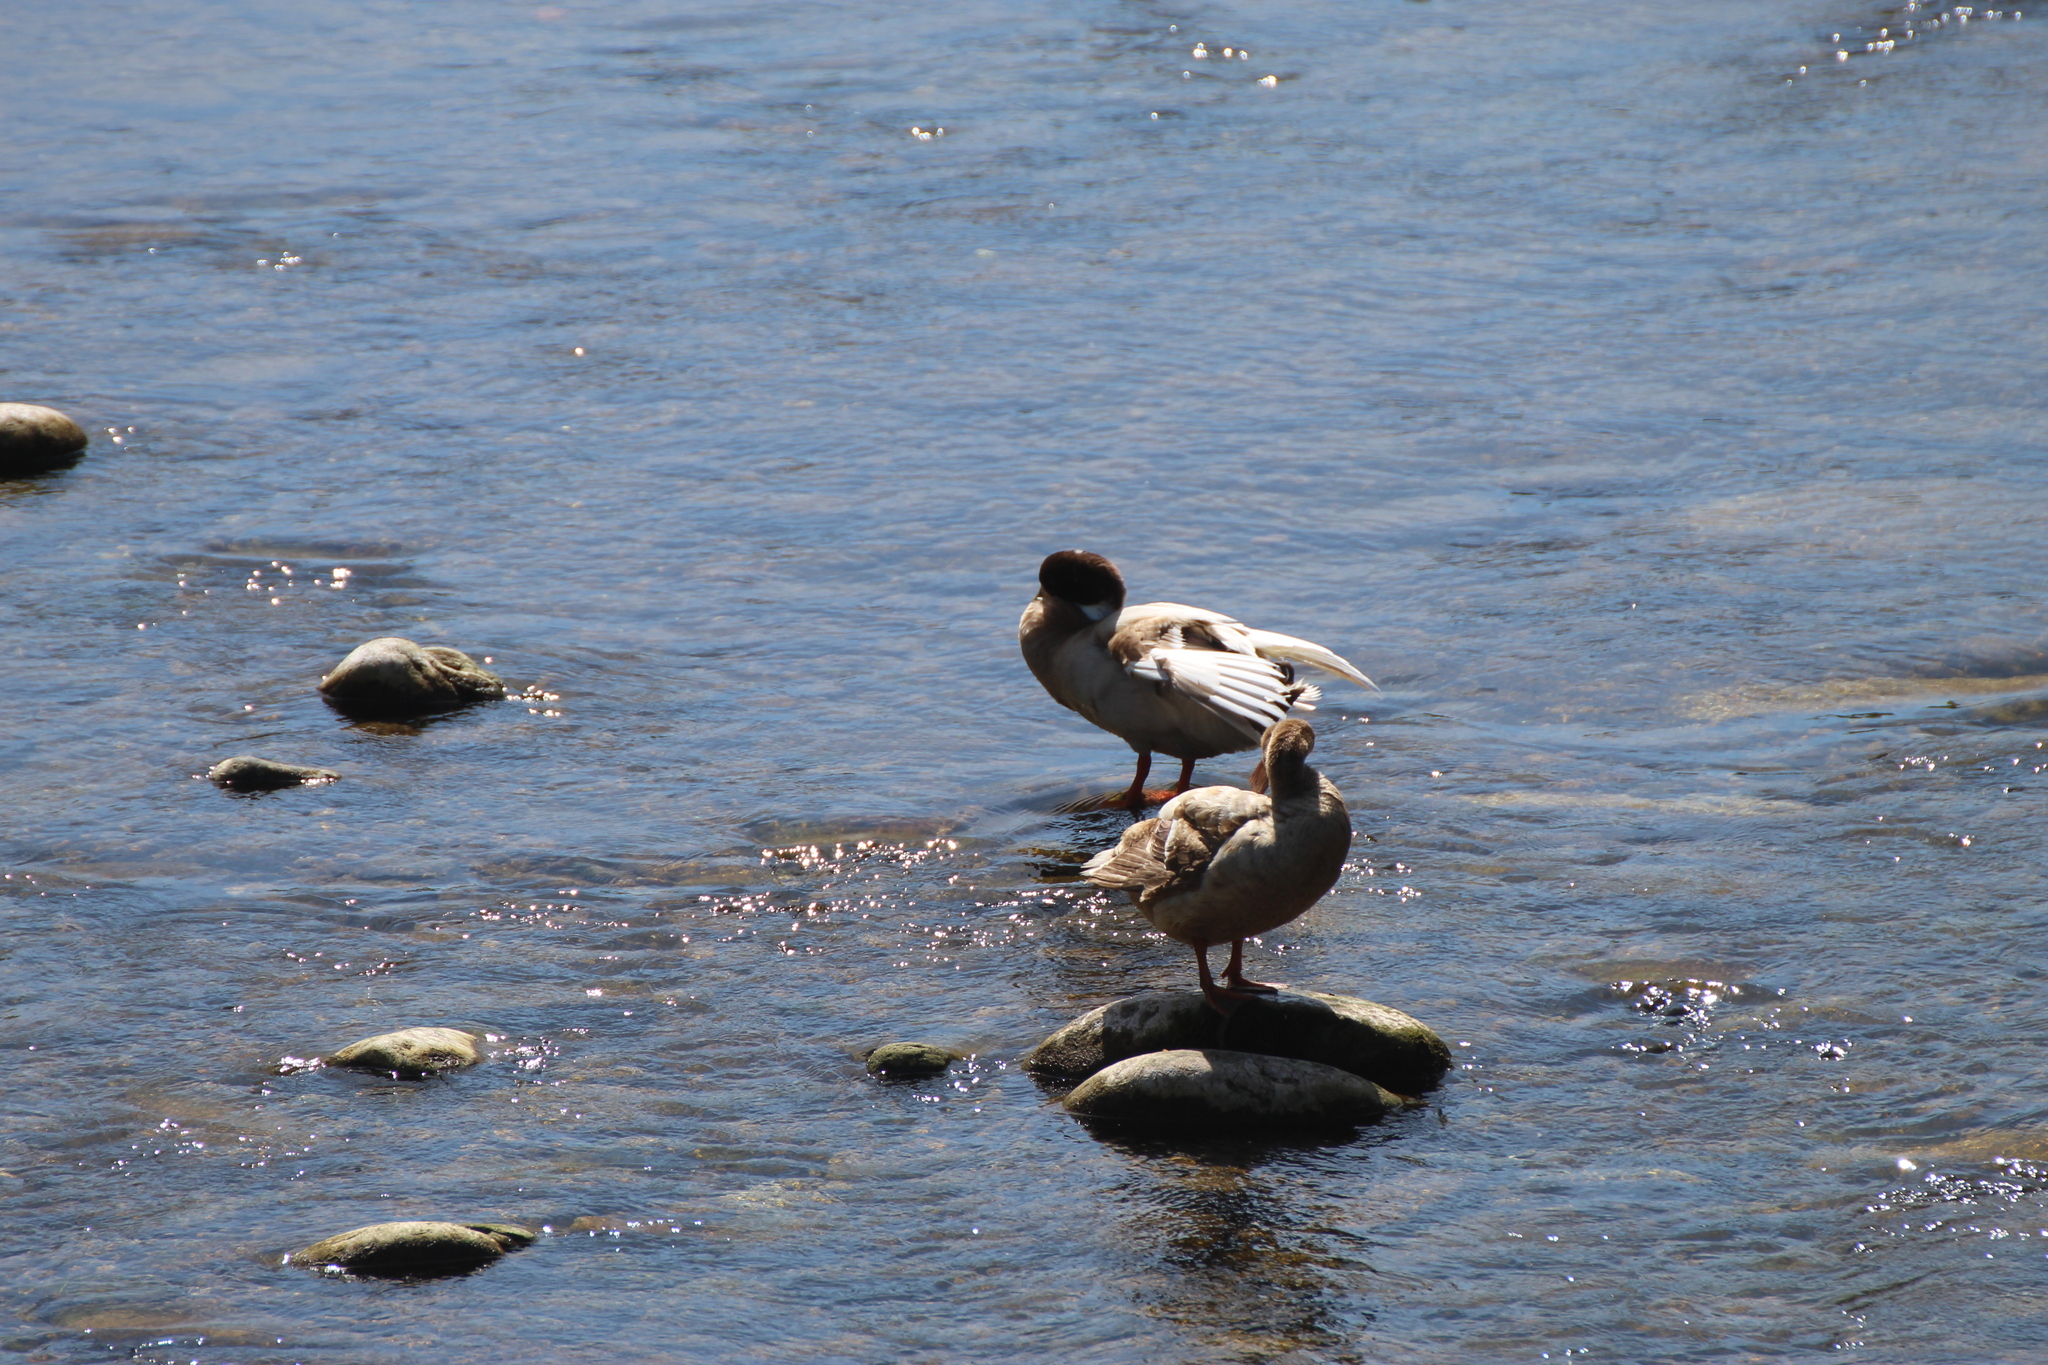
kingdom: Animalia
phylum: Chordata
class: Aves
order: Anseriformes
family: Anatidae
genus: Anas
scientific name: Anas platyrhynchos
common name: Mallard
